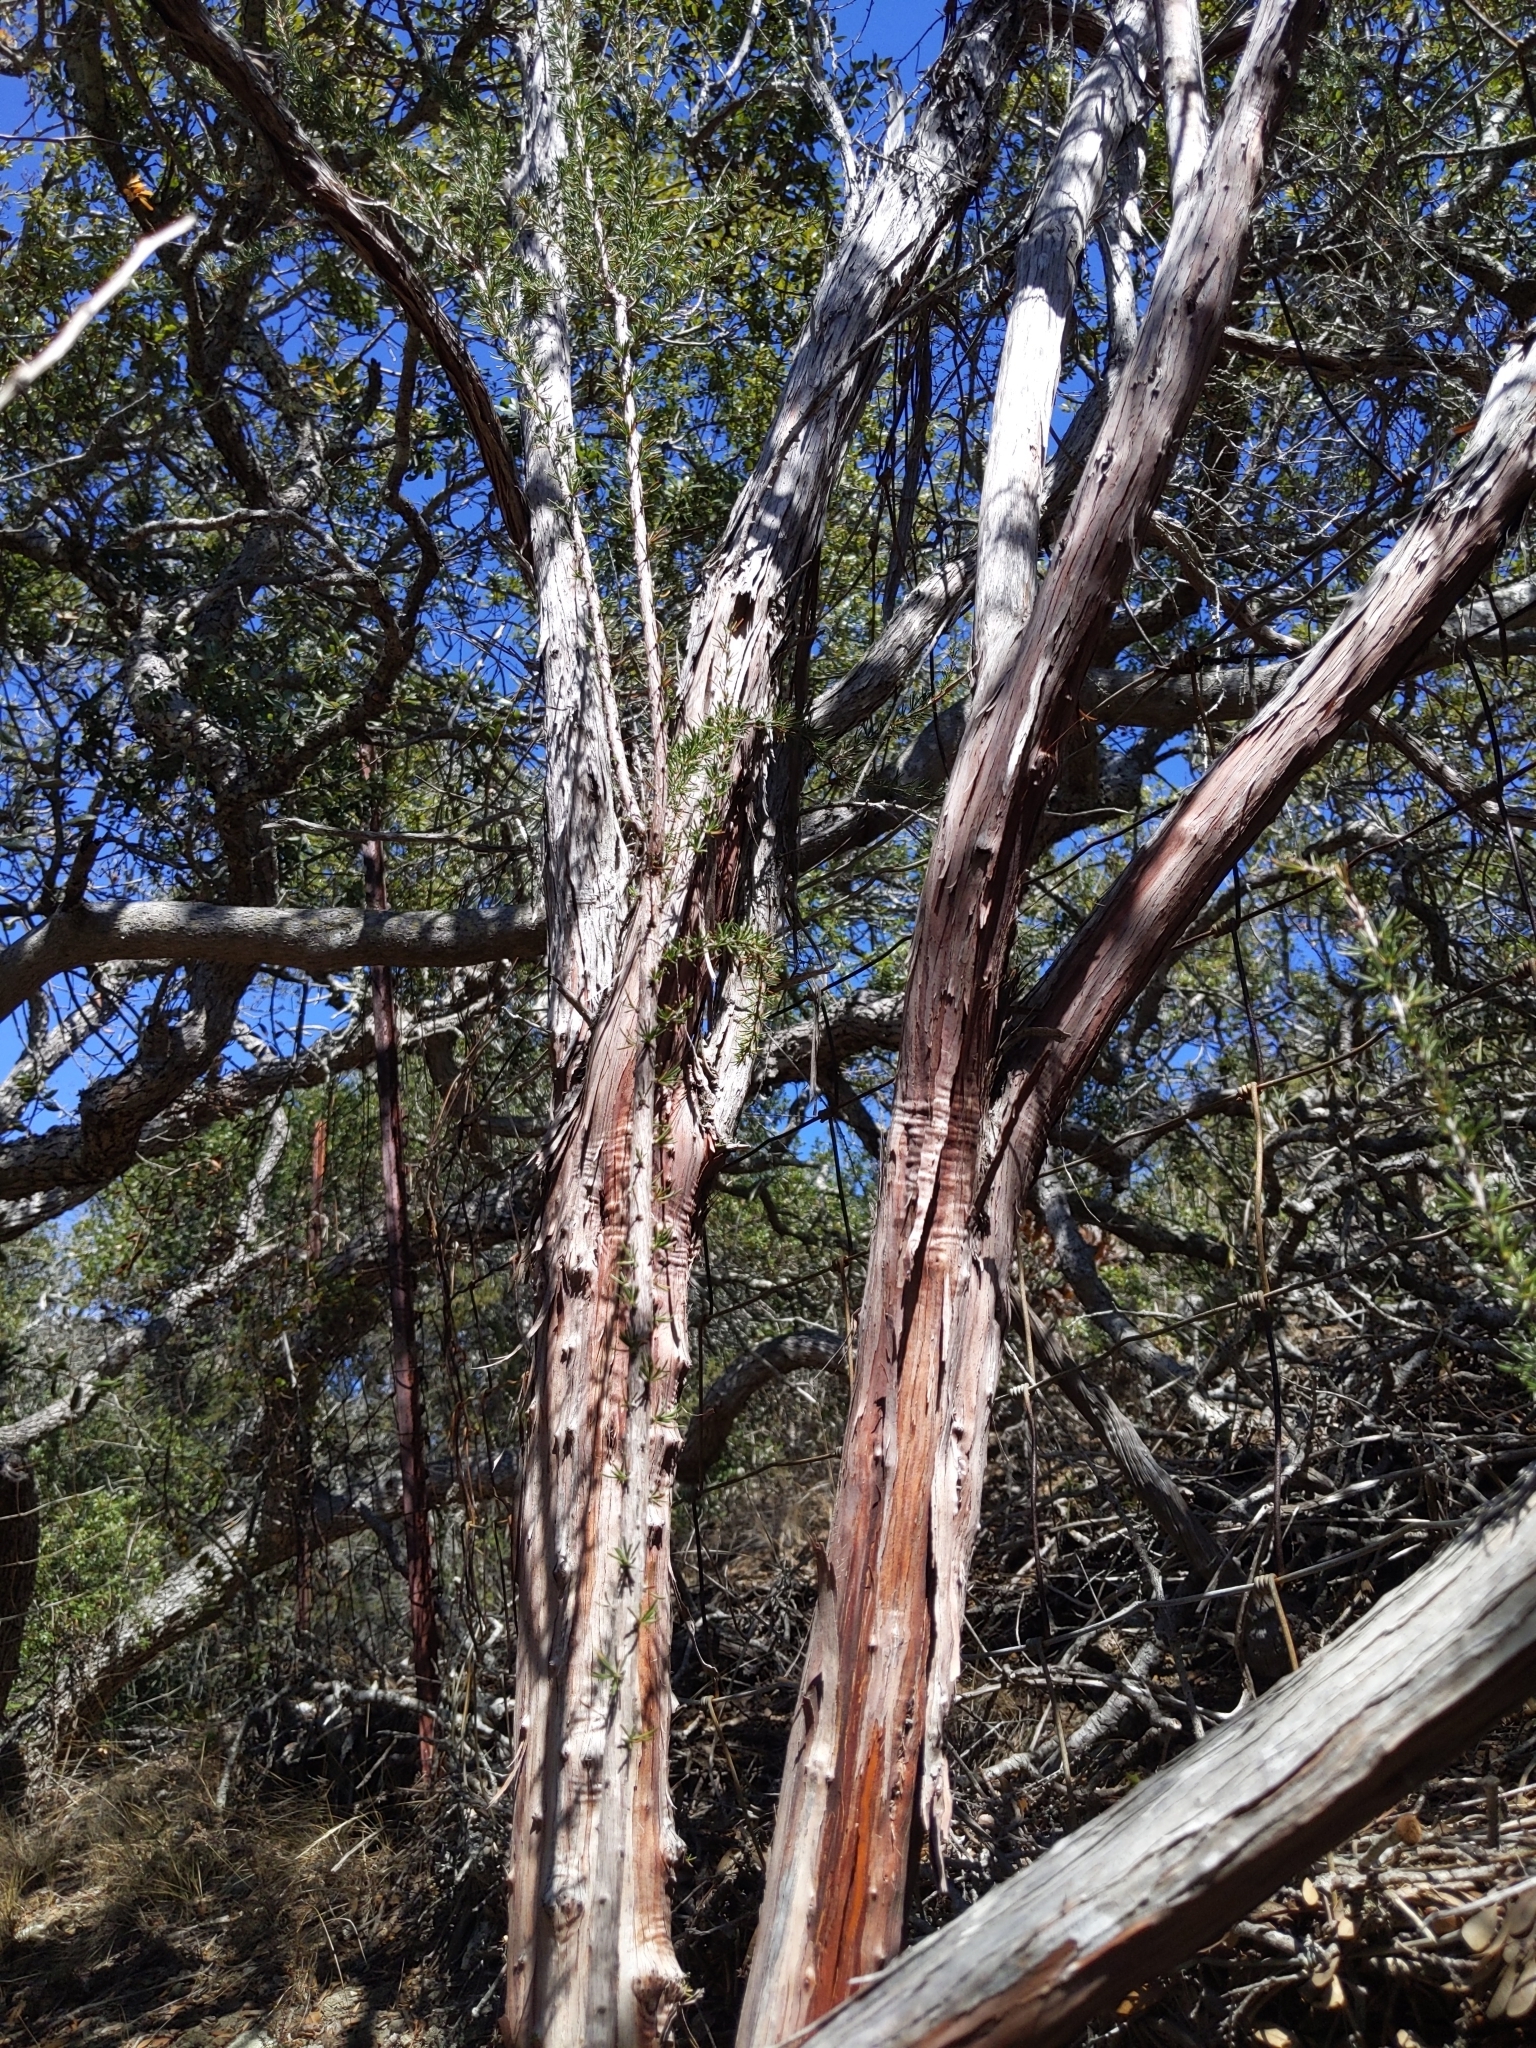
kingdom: Plantae
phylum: Tracheophyta
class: Magnoliopsida
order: Rosales
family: Rosaceae
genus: Adenostoma
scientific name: Adenostoma fasciculatum
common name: Chamise
